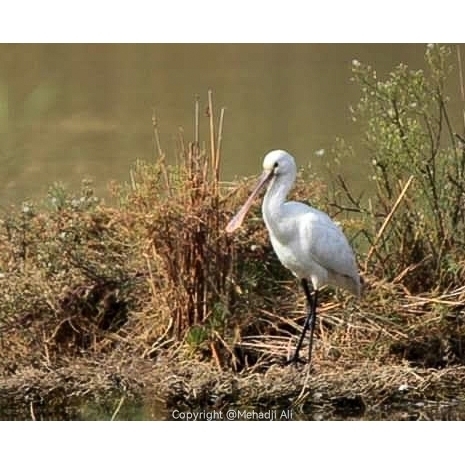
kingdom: Animalia
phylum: Chordata
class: Aves
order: Pelecaniformes
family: Threskiornithidae
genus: Platalea
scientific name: Platalea leucorodia
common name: Eurasian spoonbill
